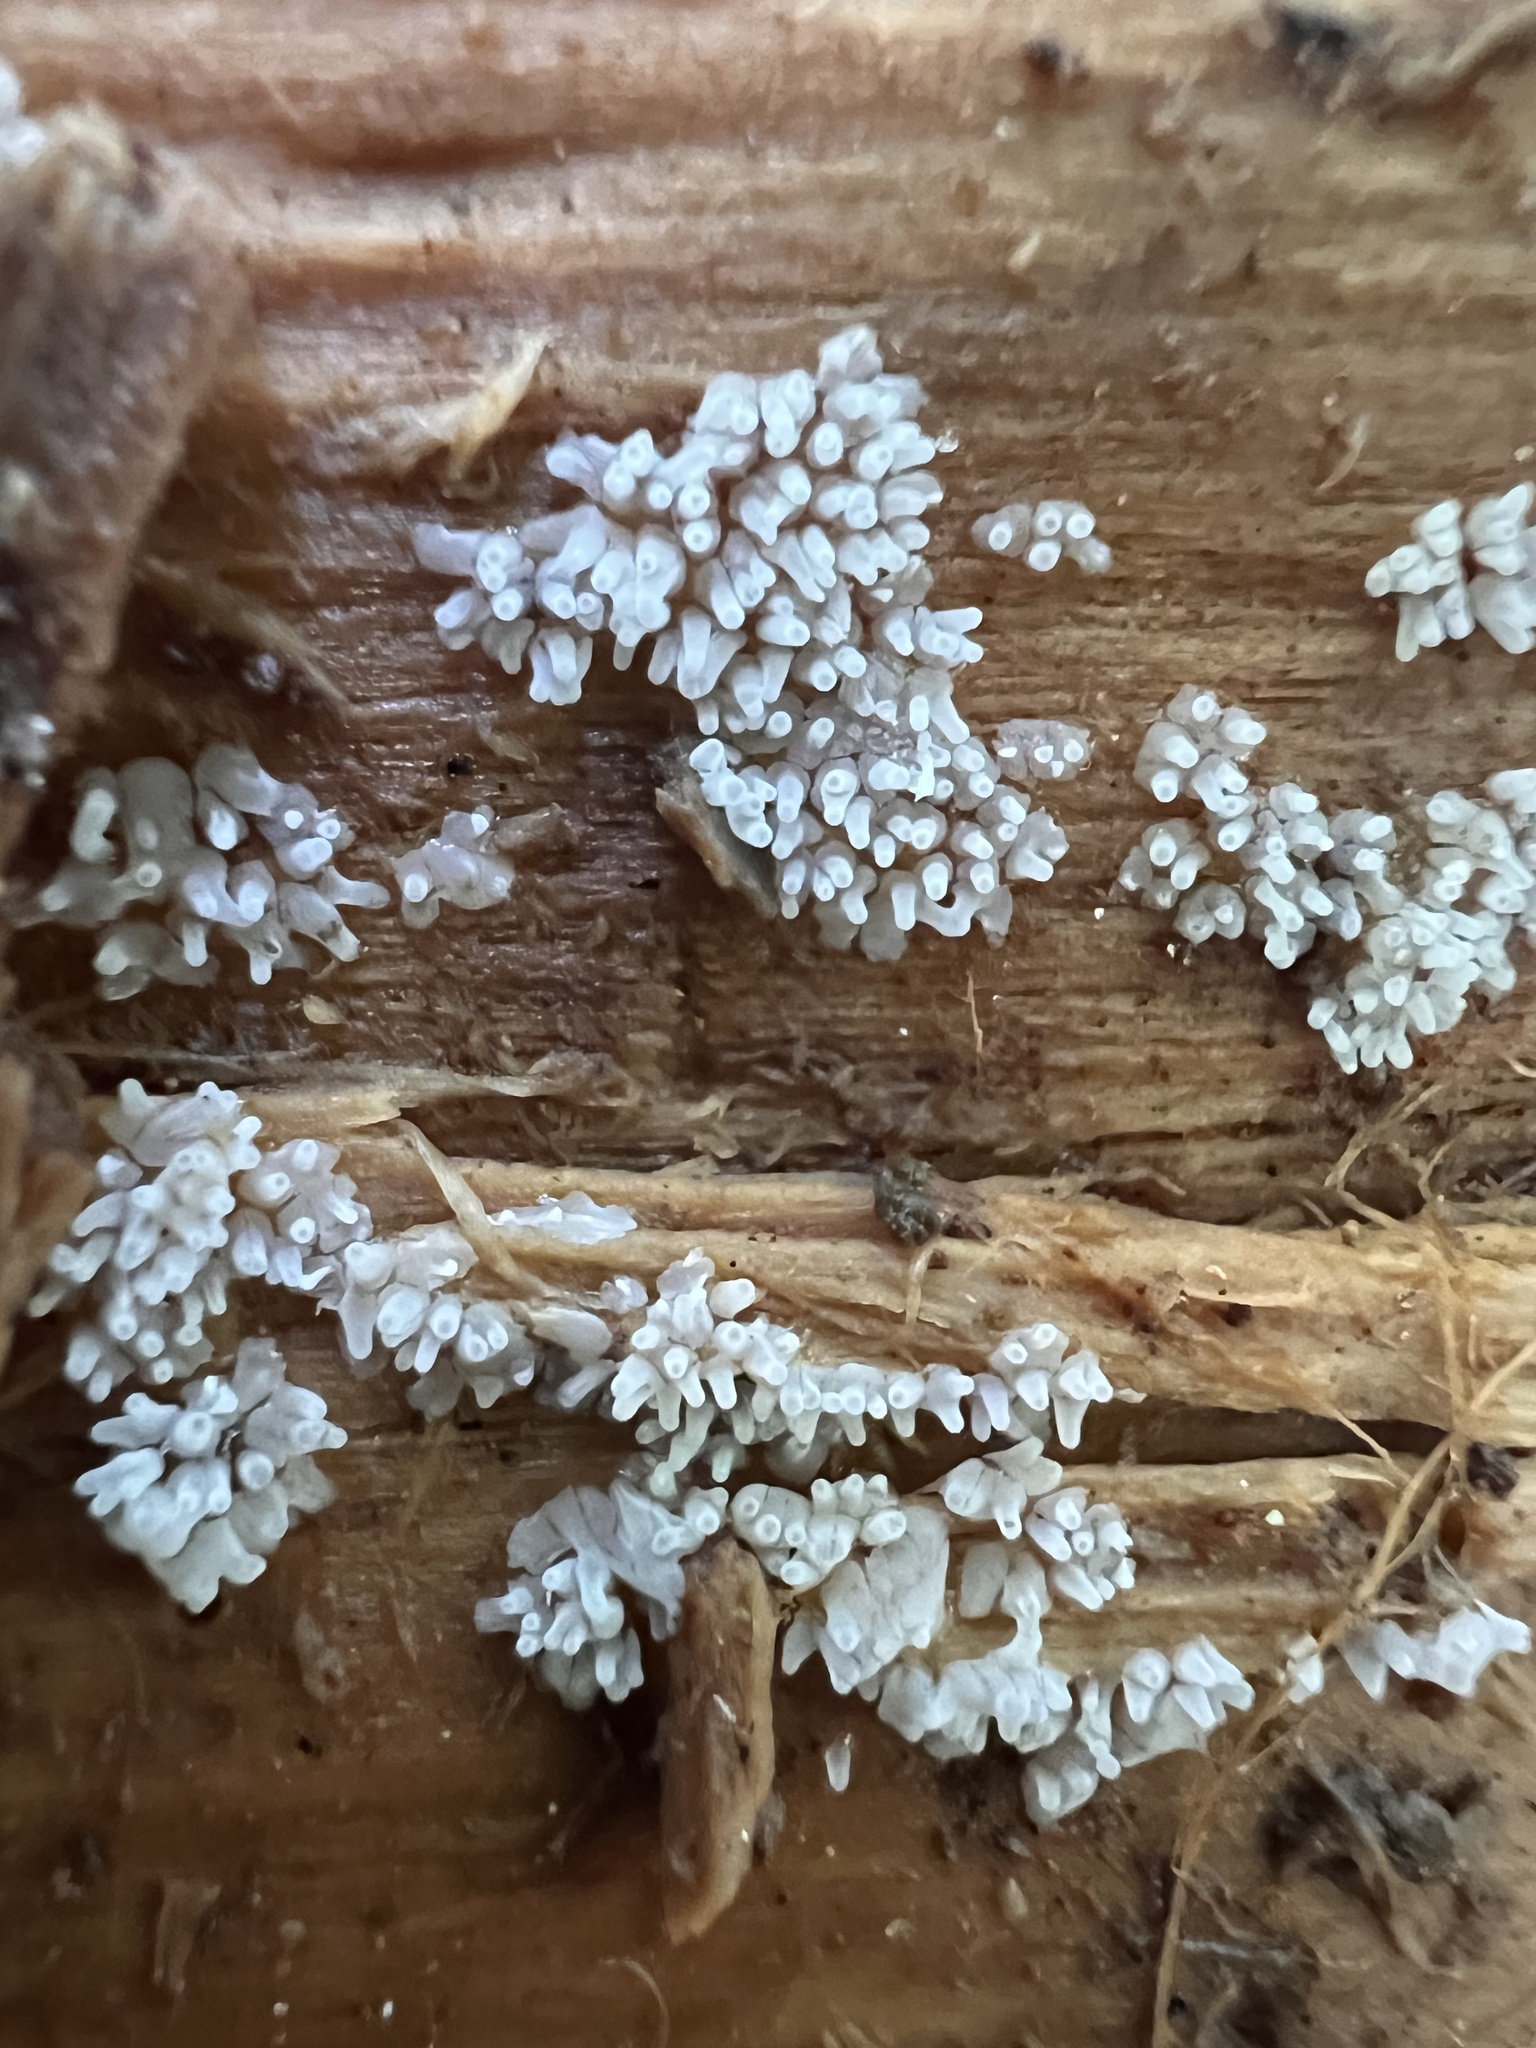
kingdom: Protozoa
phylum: Mycetozoa
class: Protosteliomycetes
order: Ceratiomyxales
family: Ceratiomyxaceae
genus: Ceratiomyxa
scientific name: Ceratiomyxa fruticulosa
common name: Honeycomb coral slime mold
